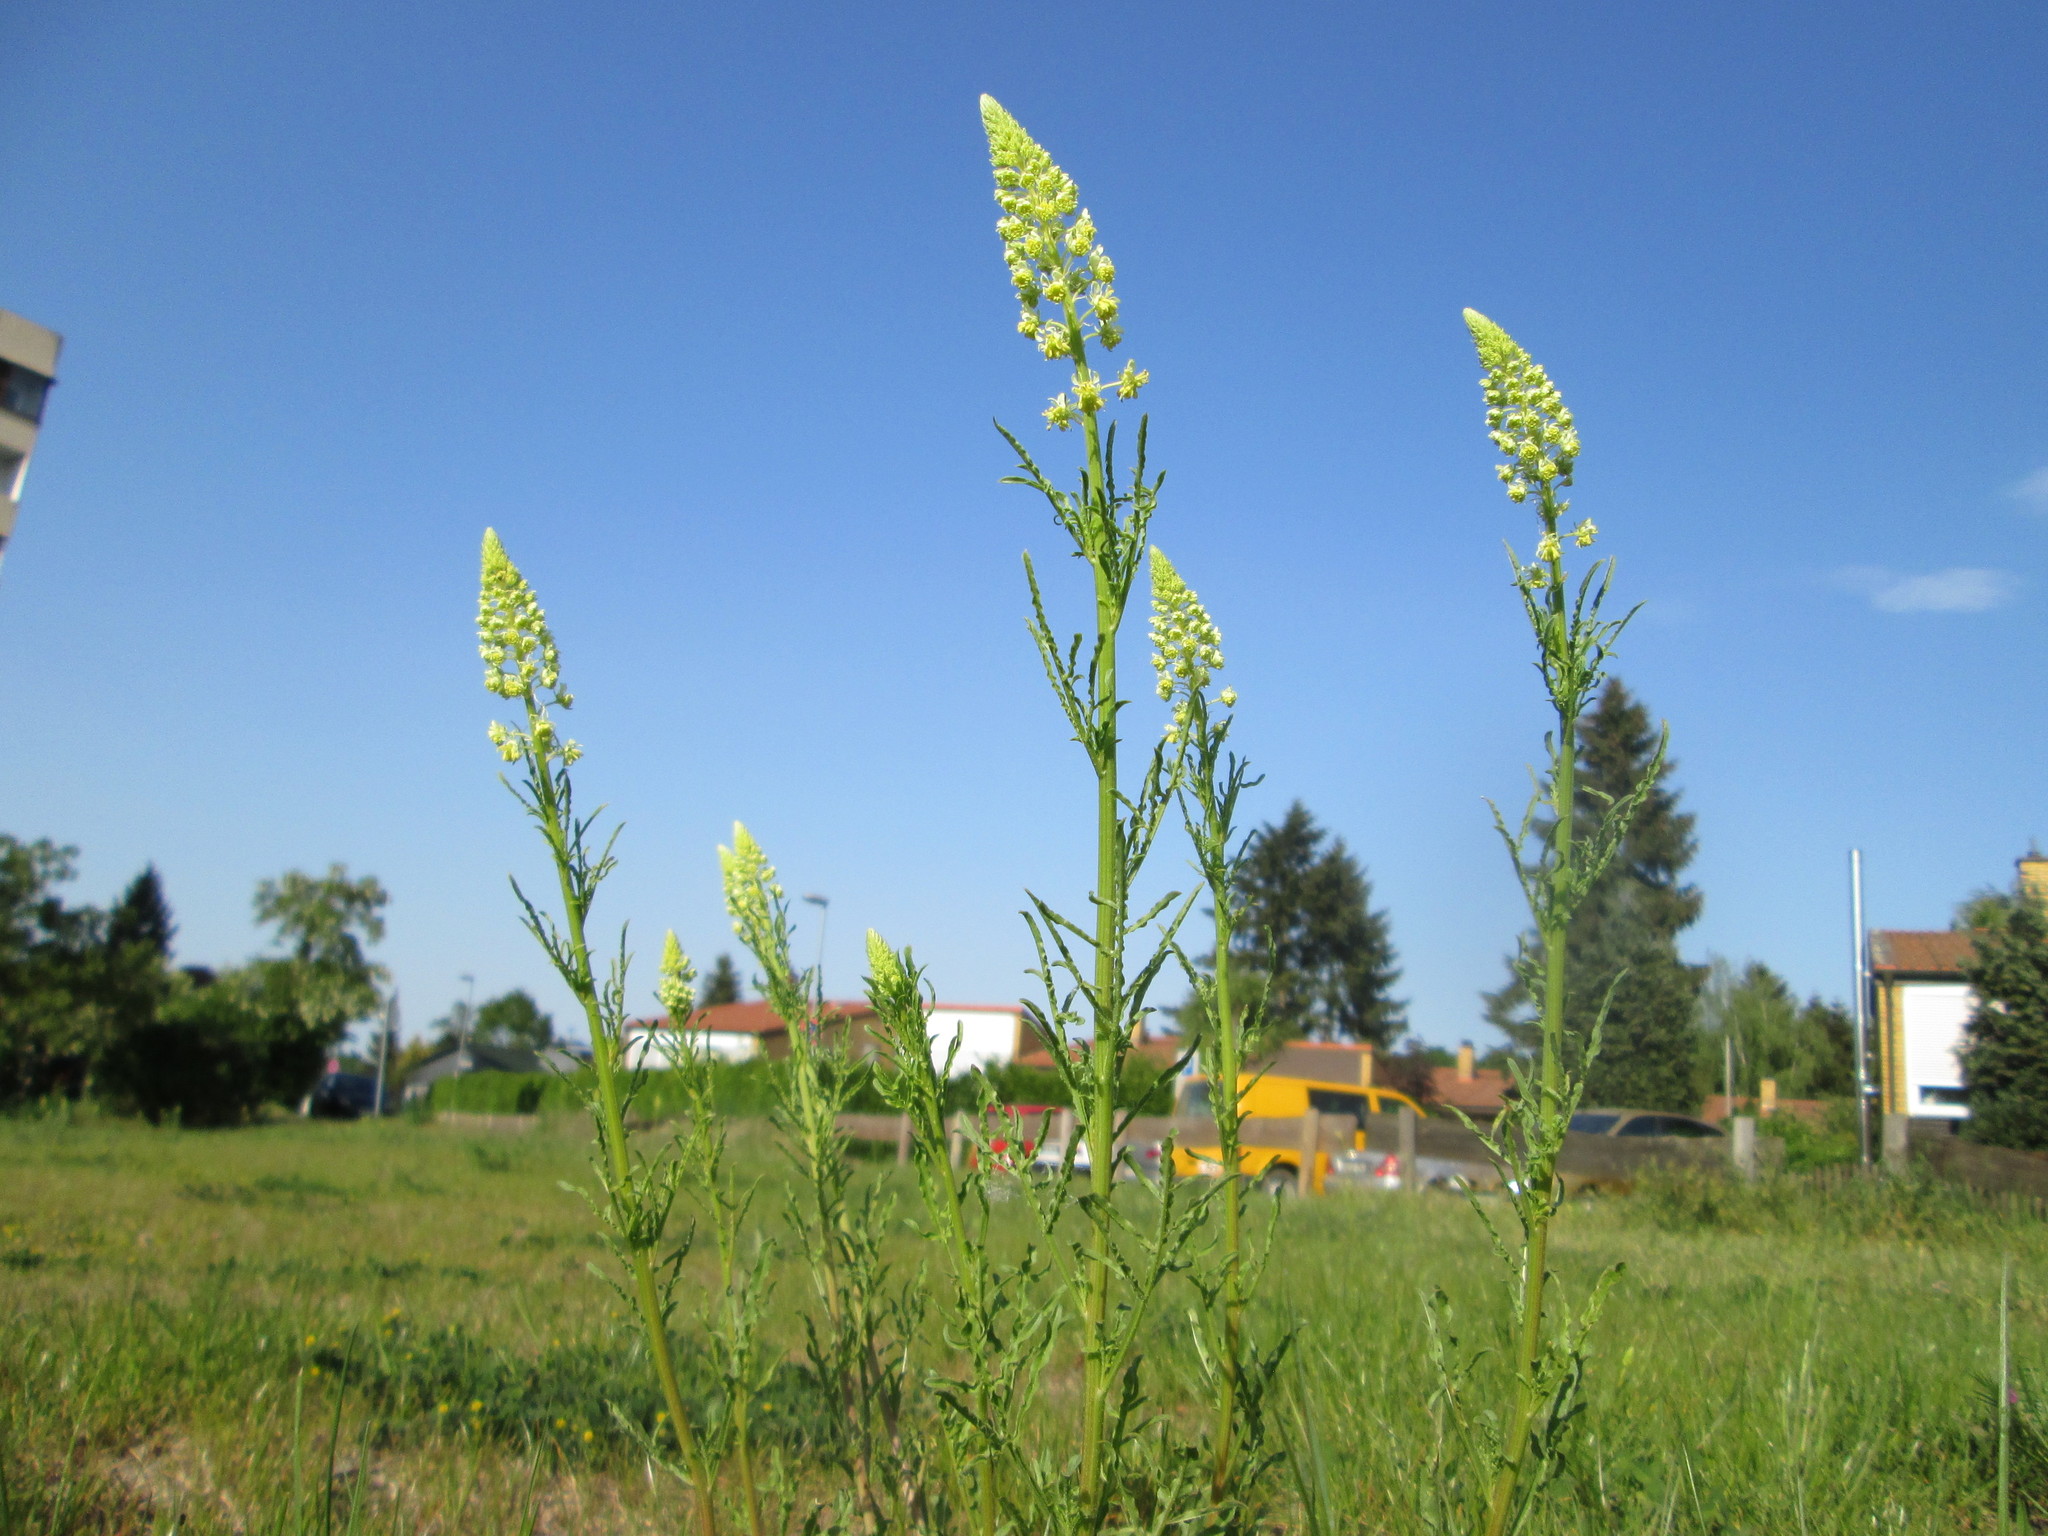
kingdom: Plantae
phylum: Tracheophyta
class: Magnoliopsida
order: Brassicales
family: Resedaceae
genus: Reseda
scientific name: Reseda lutea
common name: Wild mignonette
